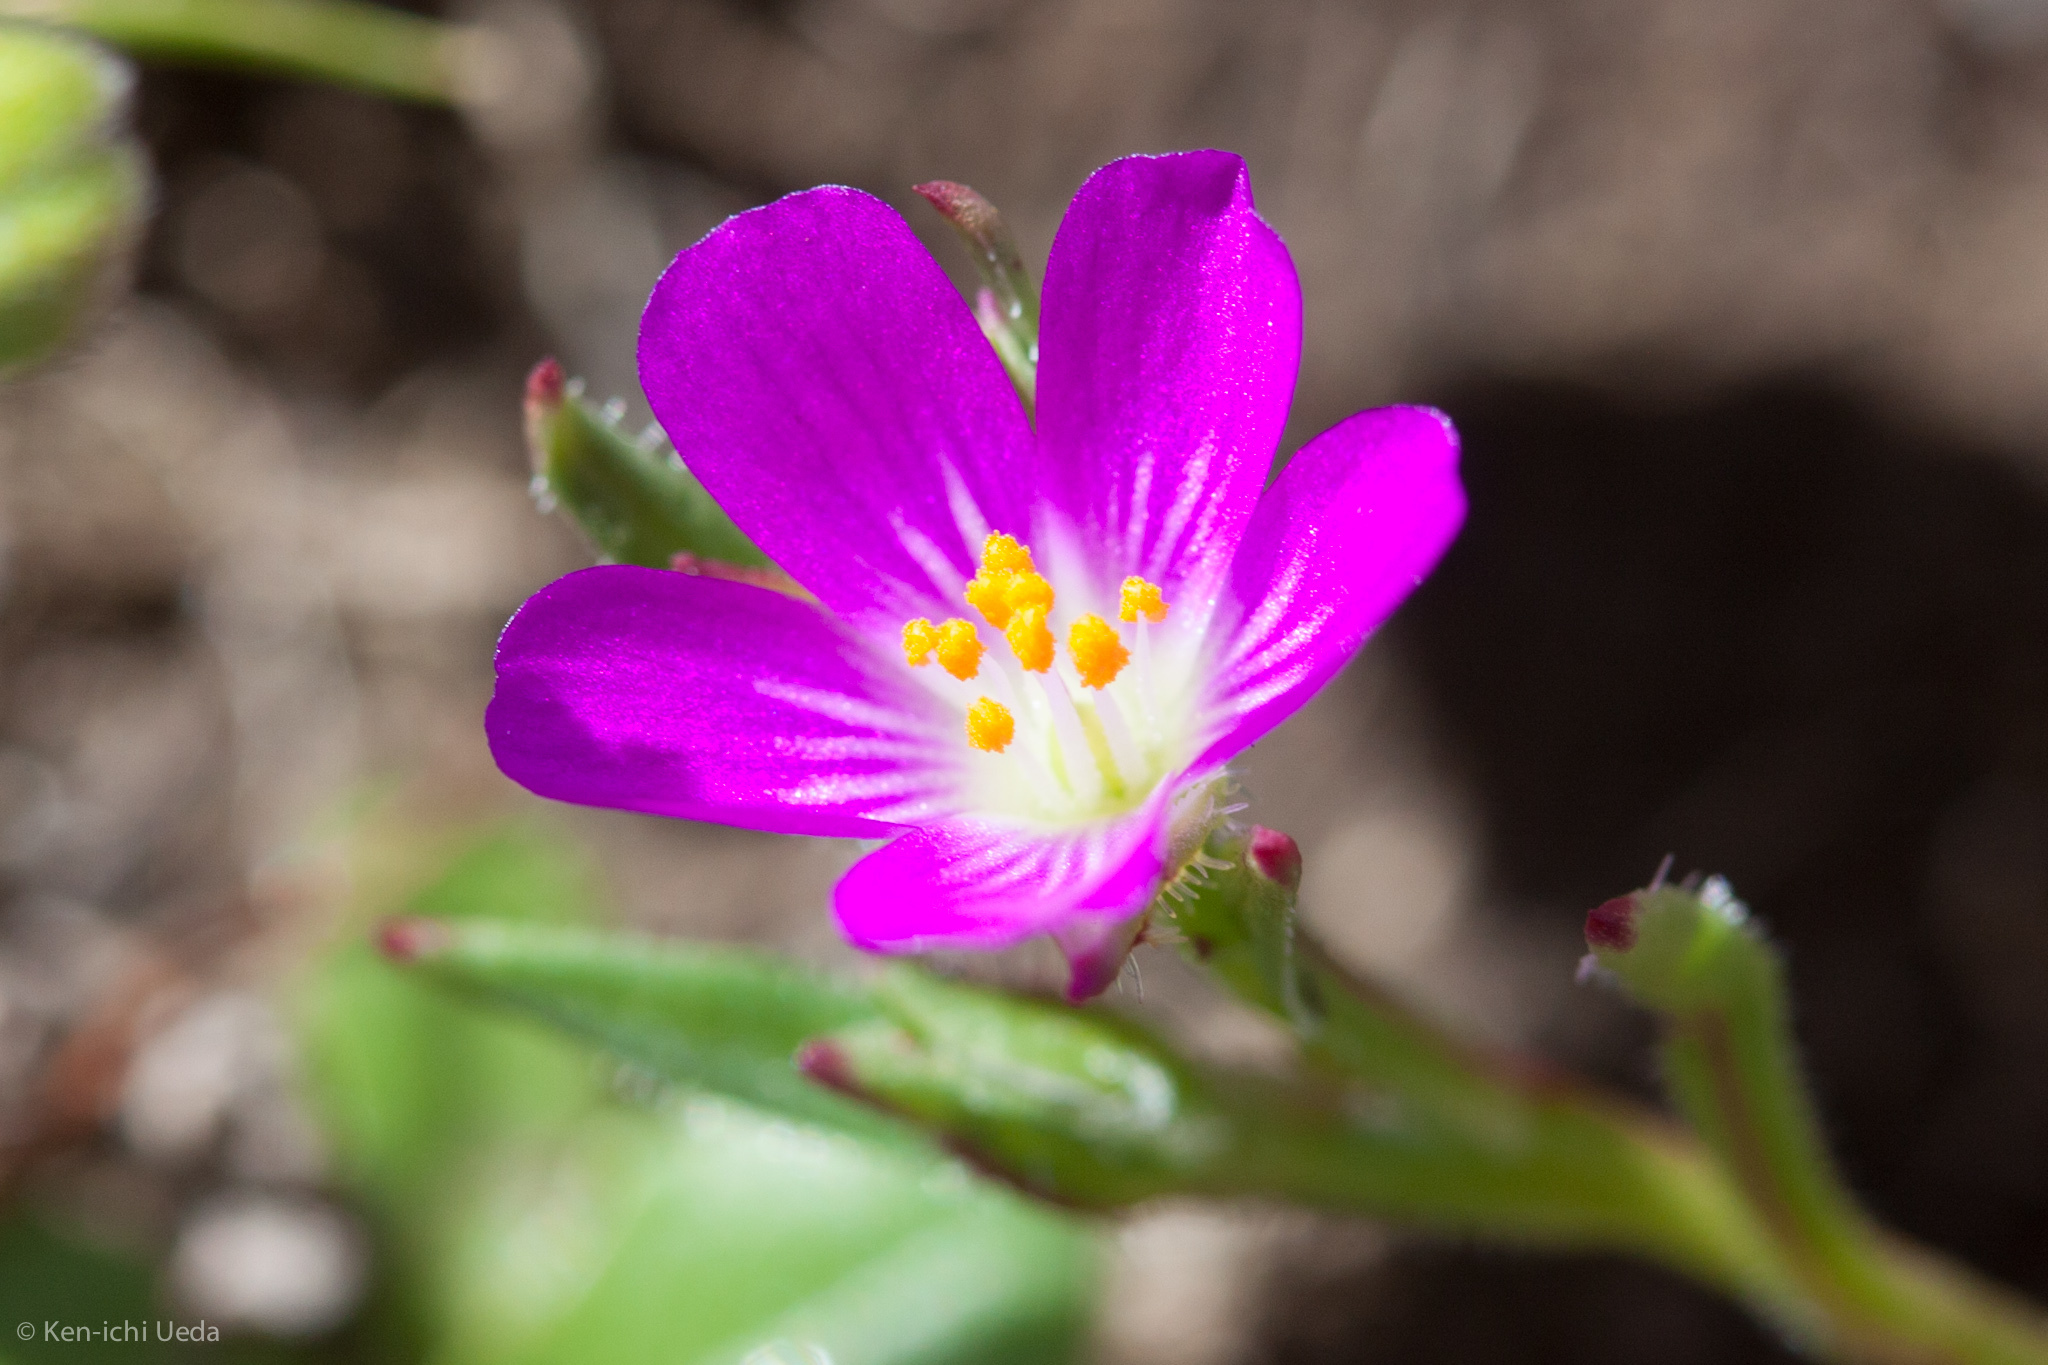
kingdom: Plantae
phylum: Tracheophyta
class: Magnoliopsida
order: Caryophyllales
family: Montiaceae
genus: Calandrinia
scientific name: Calandrinia menziesii
